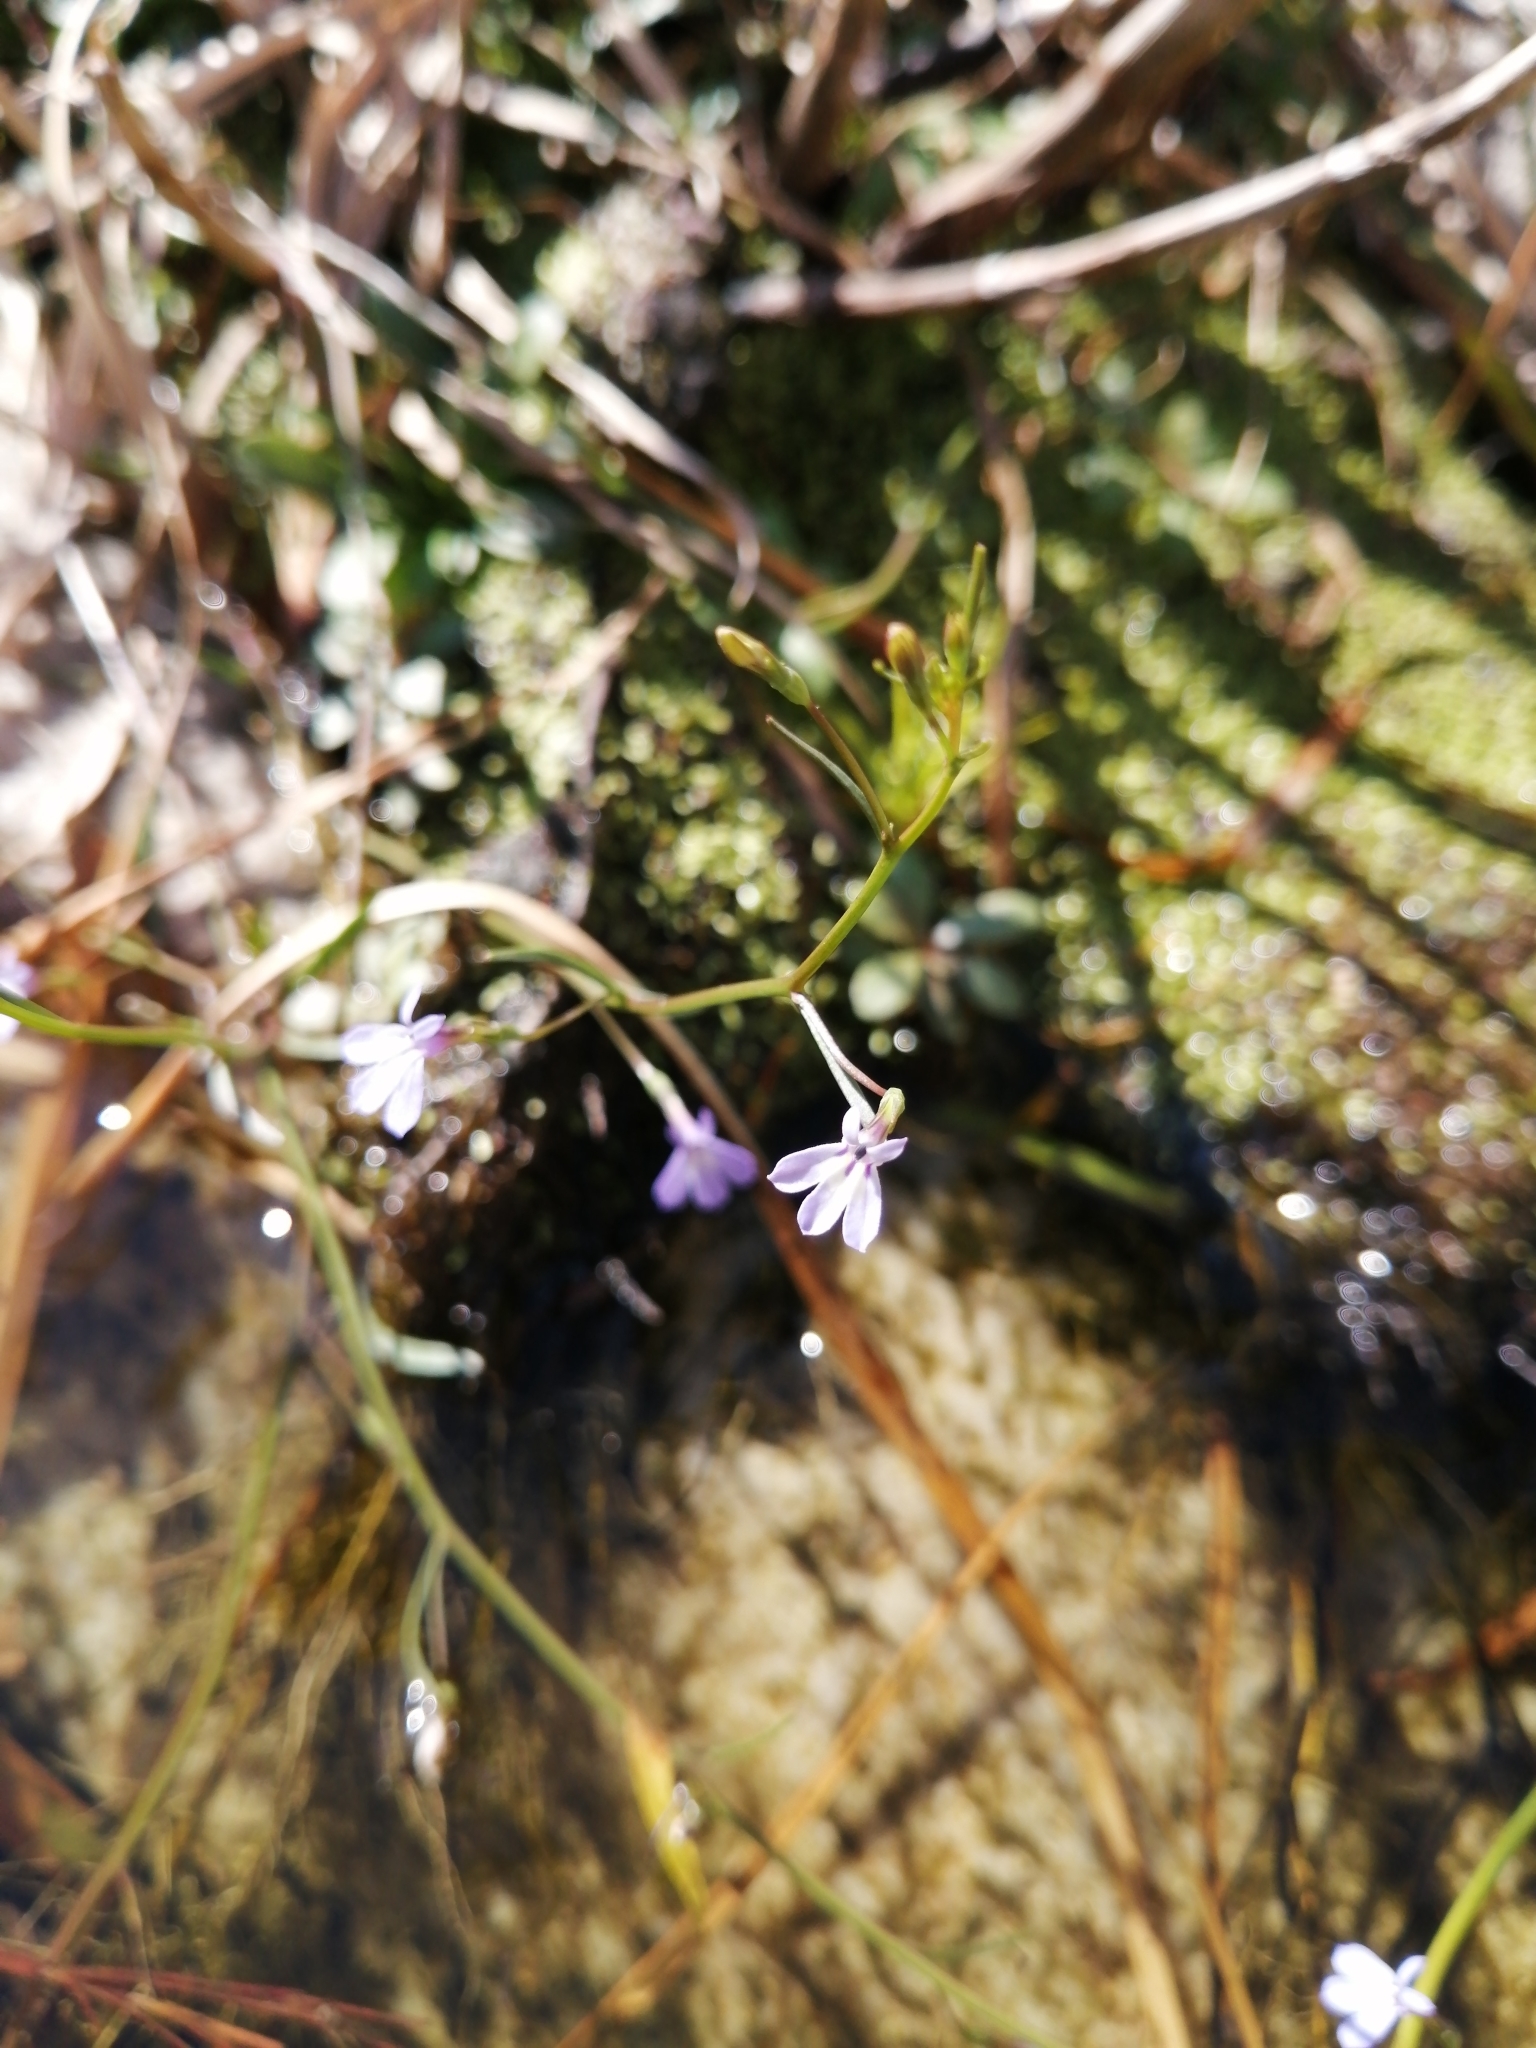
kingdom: Plantae
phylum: Tracheophyta
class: Magnoliopsida
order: Asterales
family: Campanulaceae
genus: Wimmerella
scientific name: Wimmerella arabidea
